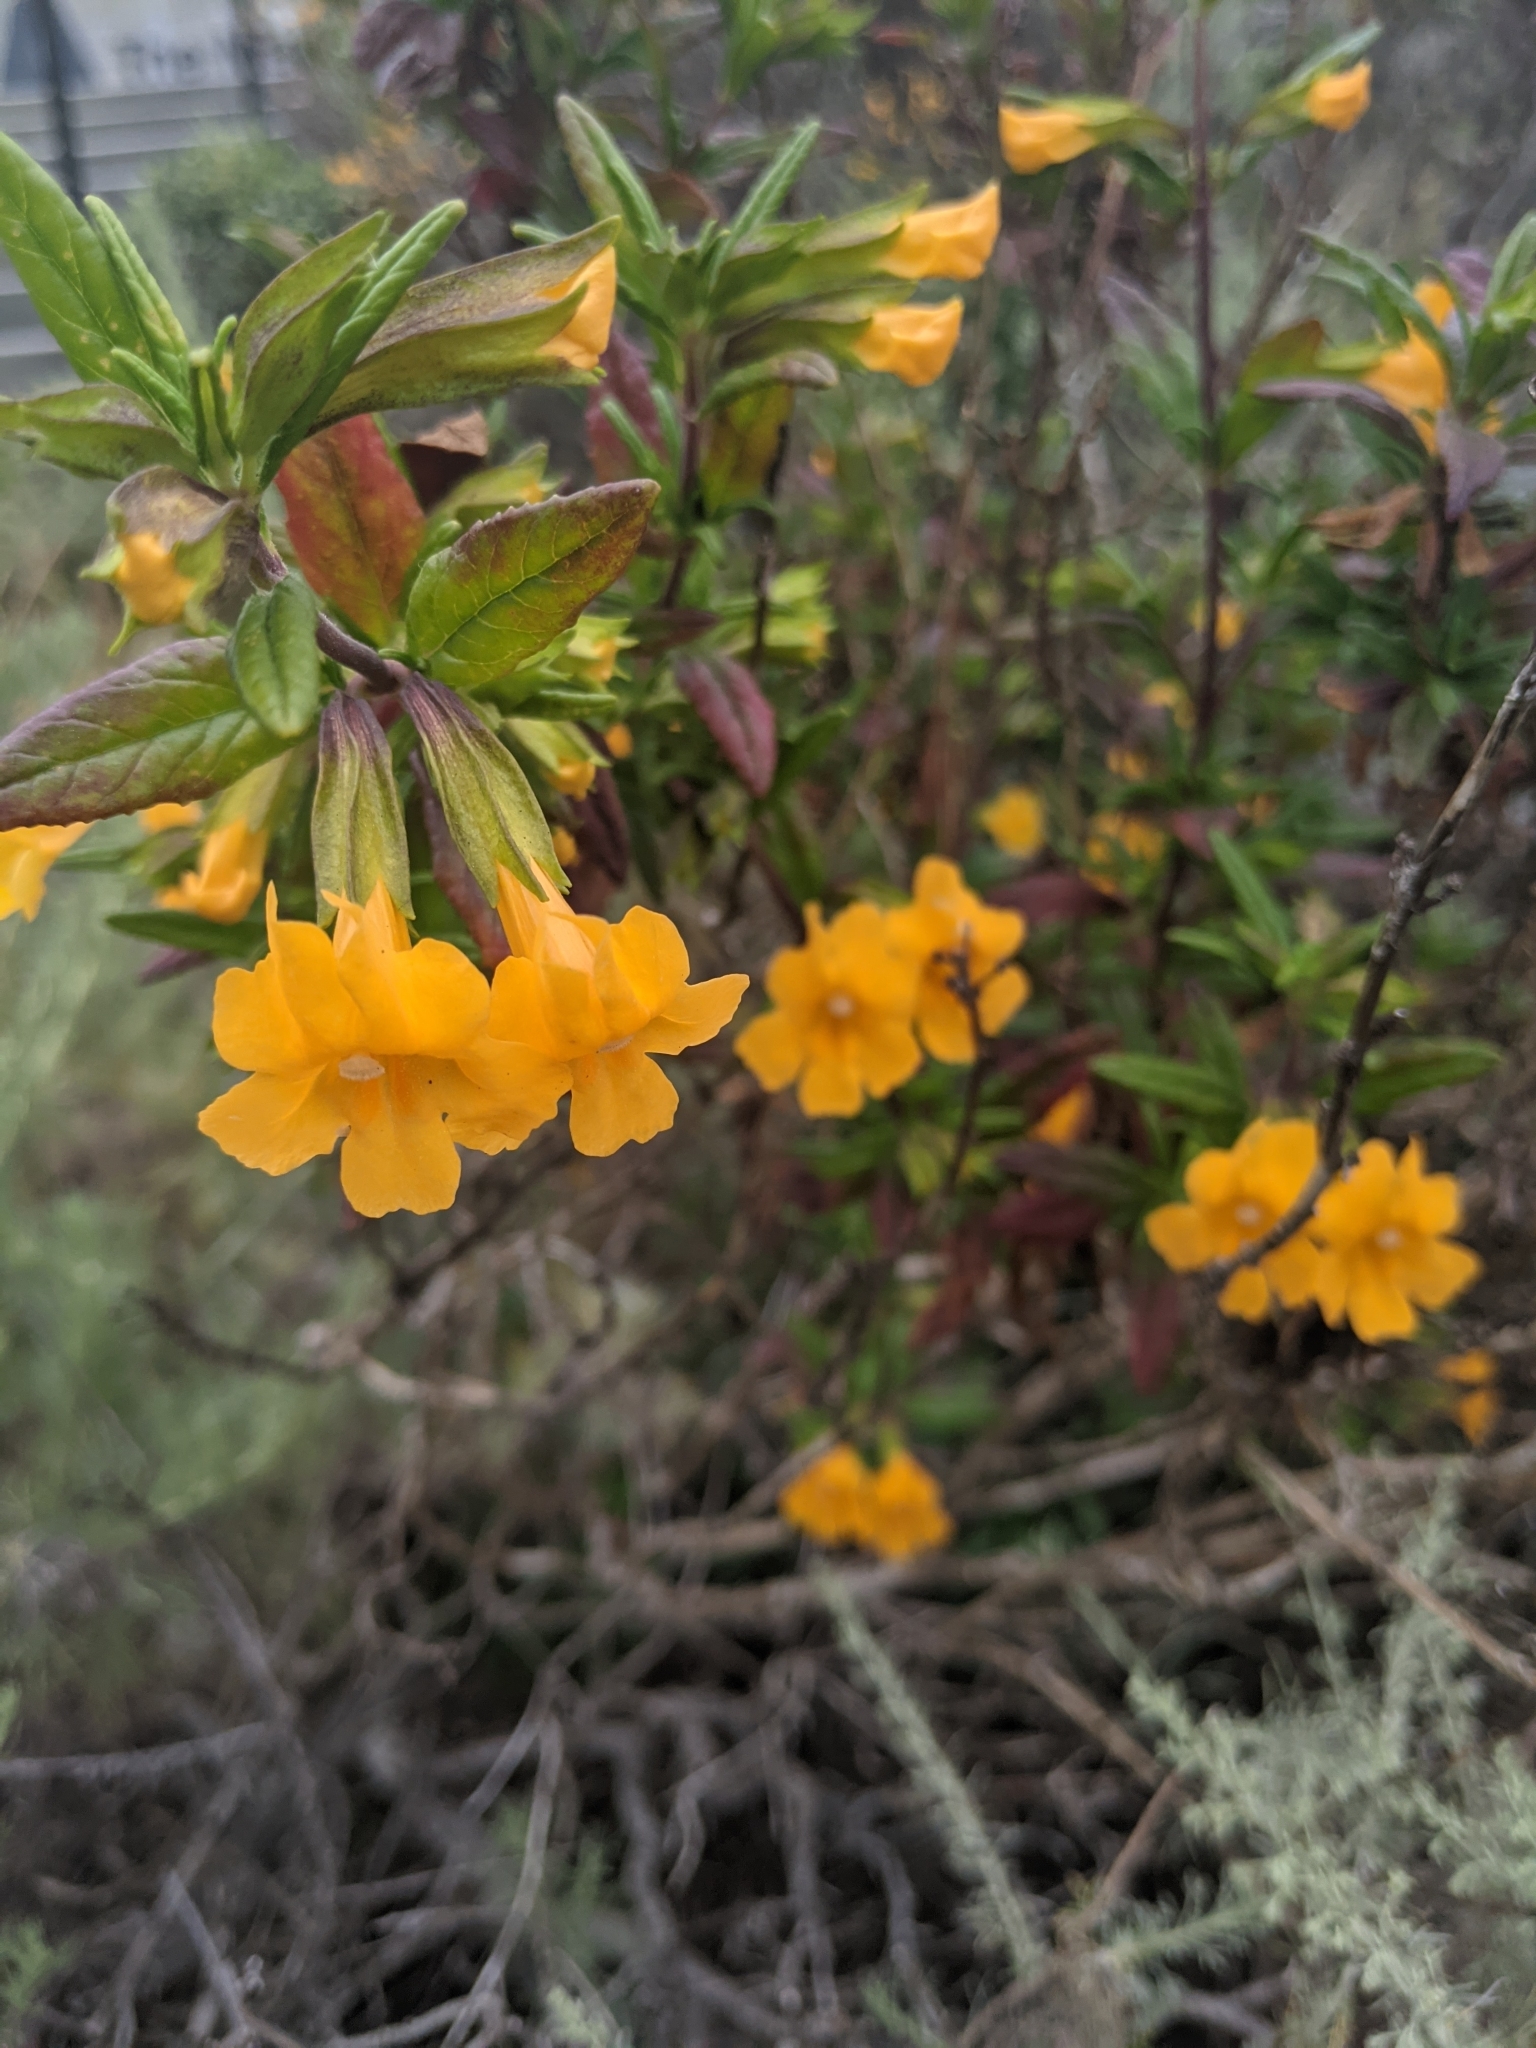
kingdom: Plantae
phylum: Tracheophyta
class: Magnoliopsida
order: Lamiales
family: Phrymaceae
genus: Diplacus
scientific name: Diplacus aurantiacus
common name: Bush monkey-flower
